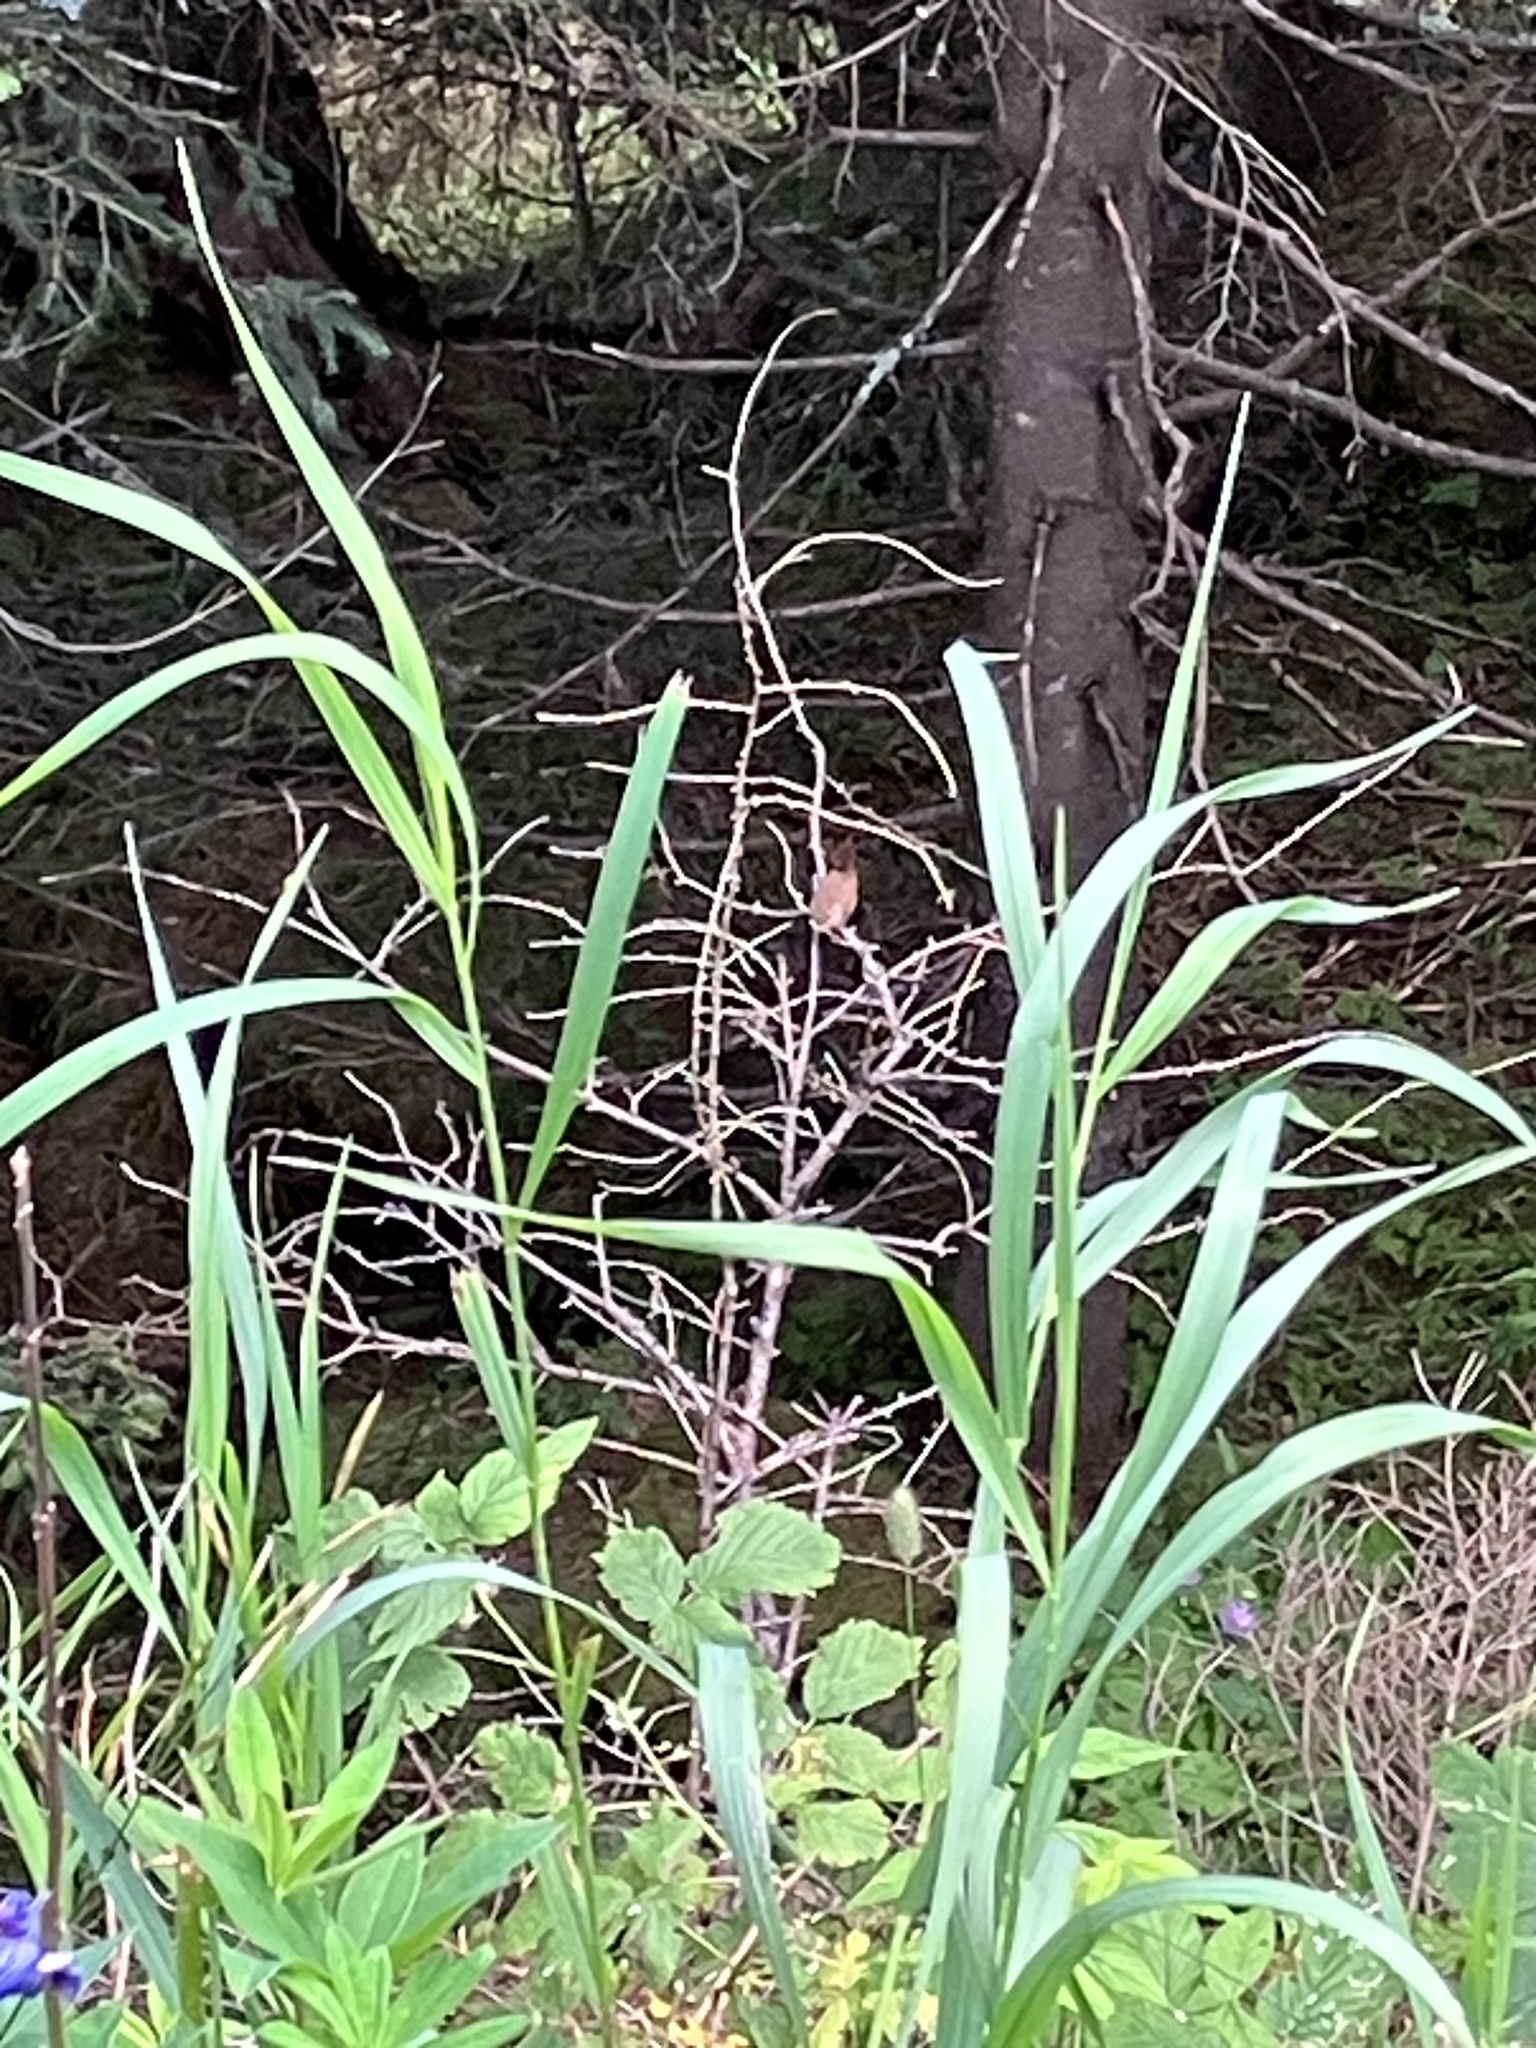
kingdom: Animalia
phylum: Chordata
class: Aves
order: Passeriformes
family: Troglodytidae
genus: Troglodytes
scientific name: Troglodytes troglodytes
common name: Eurasian wren
